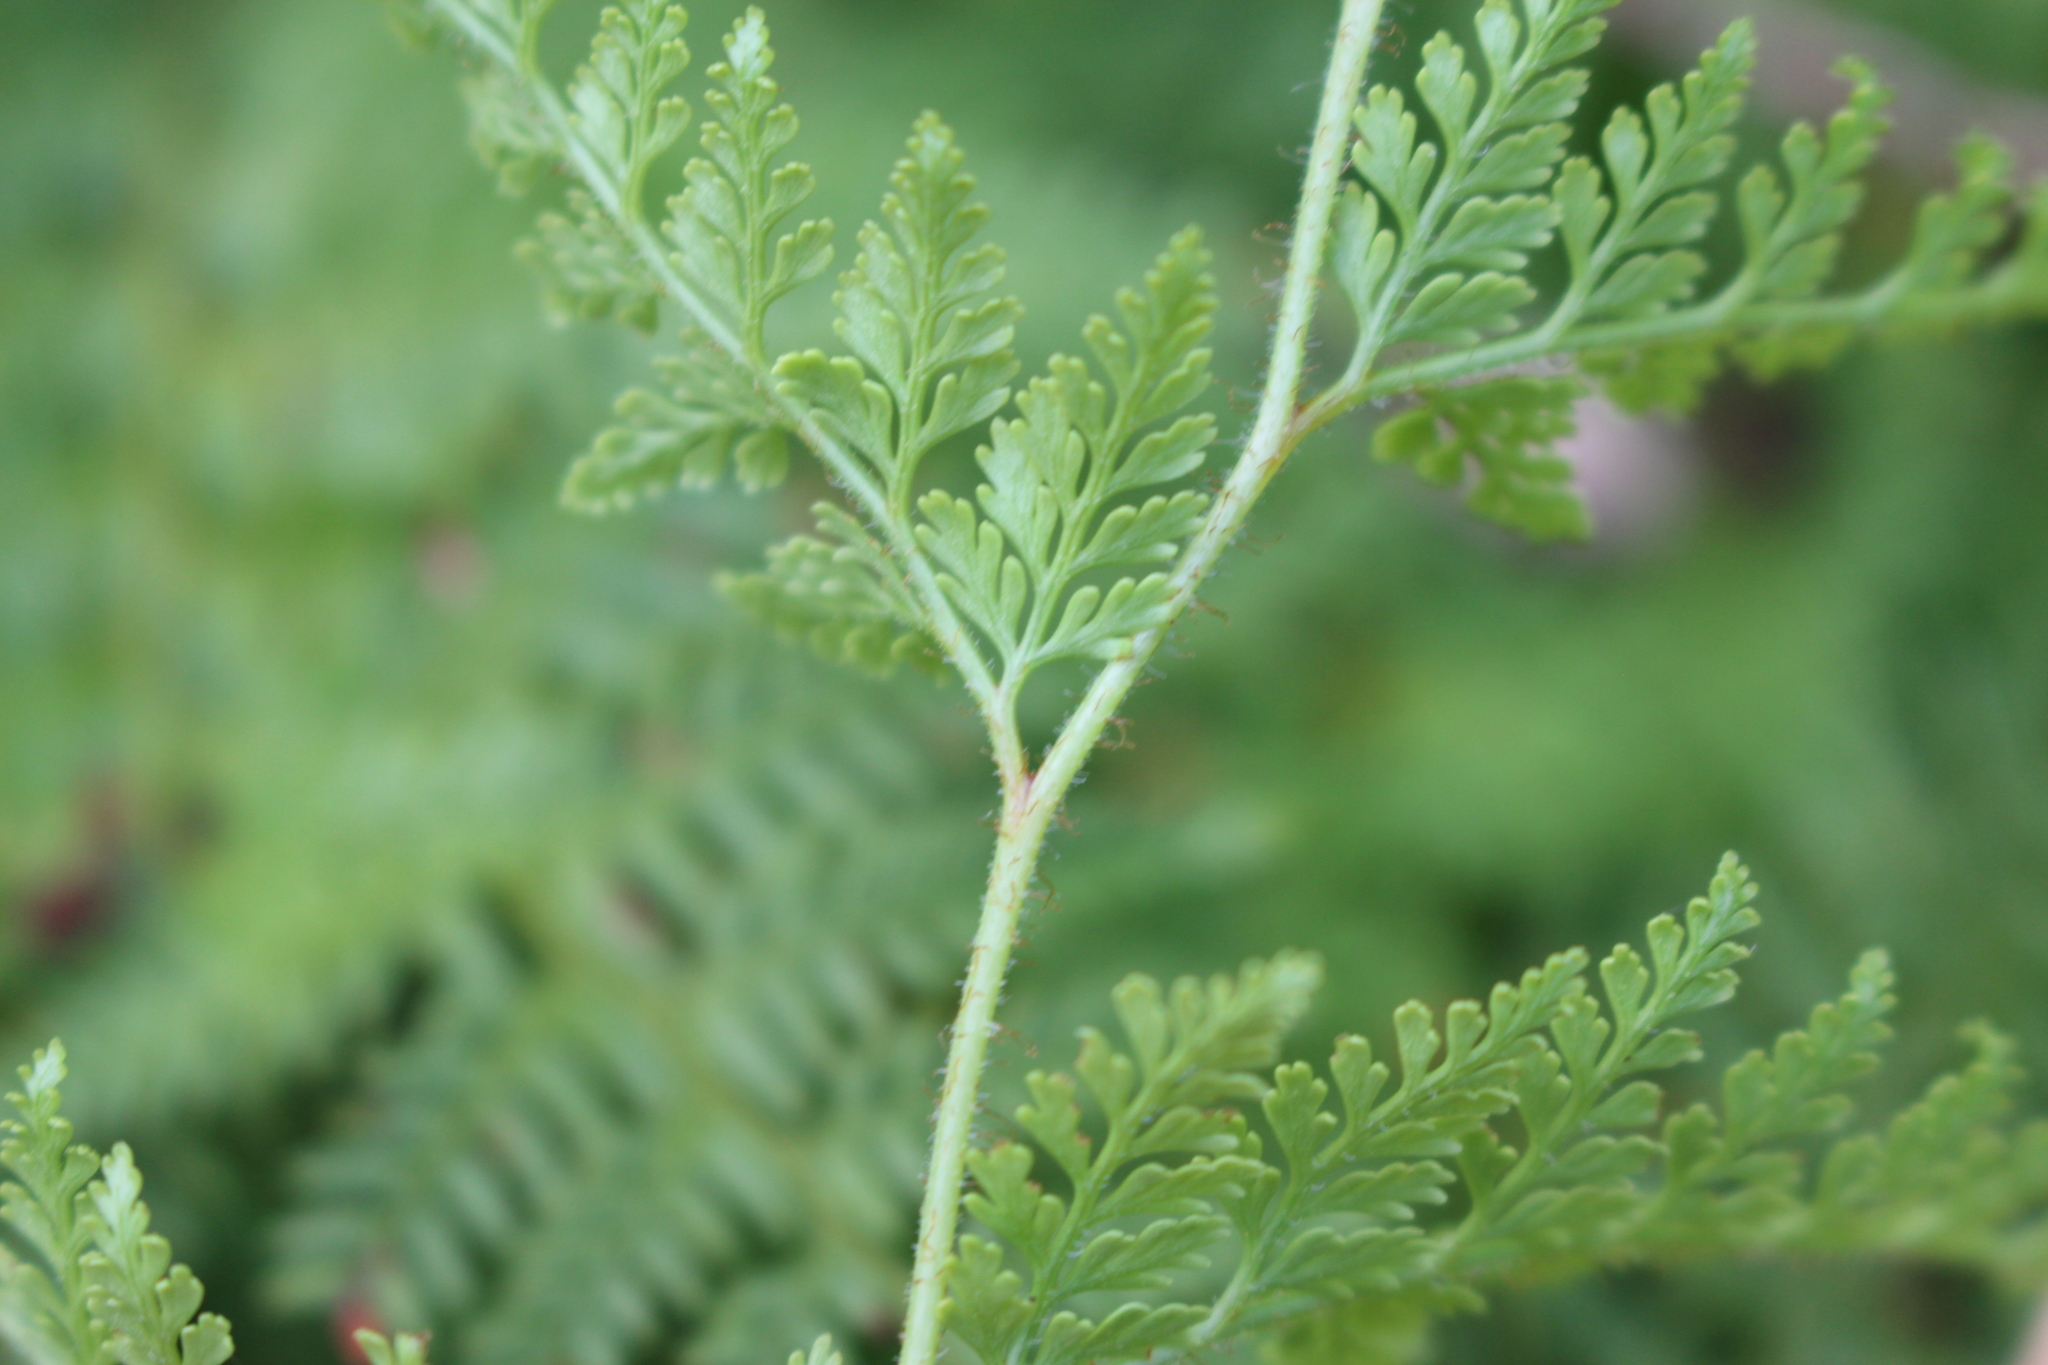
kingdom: Plantae
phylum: Tracheophyta
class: Polypodiopsida
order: Polypodiales
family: Dennstaedtiaceae
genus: Paesia
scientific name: Paesia scaberula
